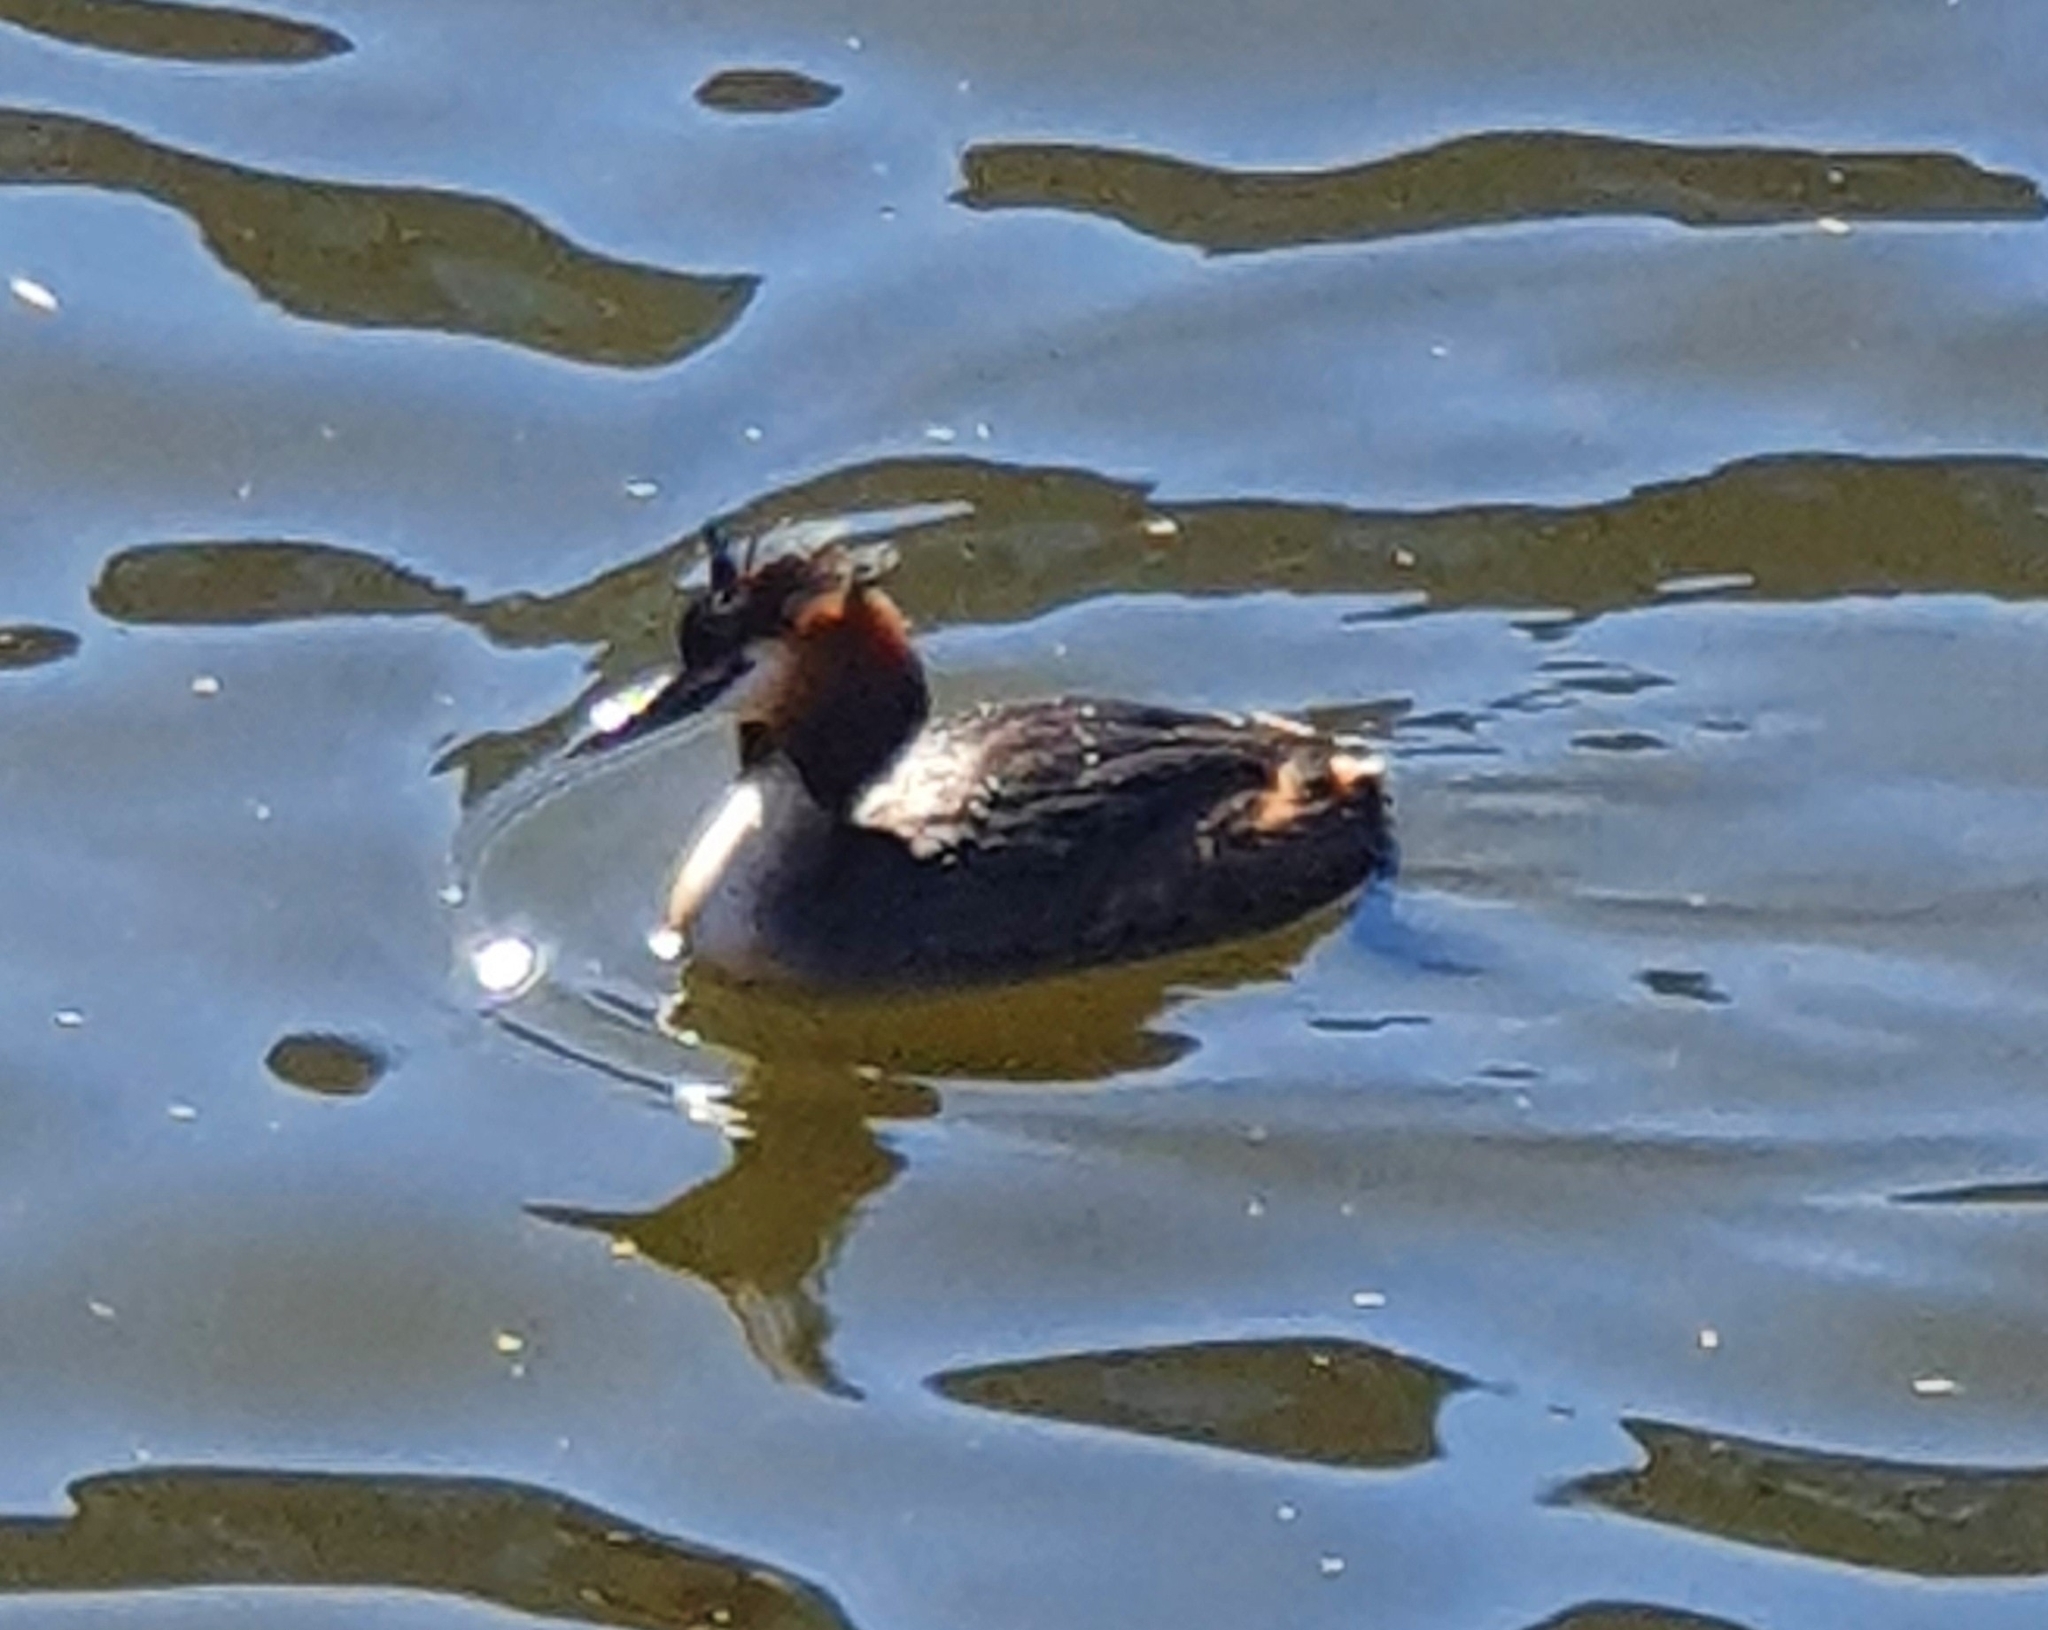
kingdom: Animalia
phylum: Chordata
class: Aves
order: Podicipediformes
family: Podicipedidae
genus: Podiceps
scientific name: Podiceps cristatus
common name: Great crested grebe
